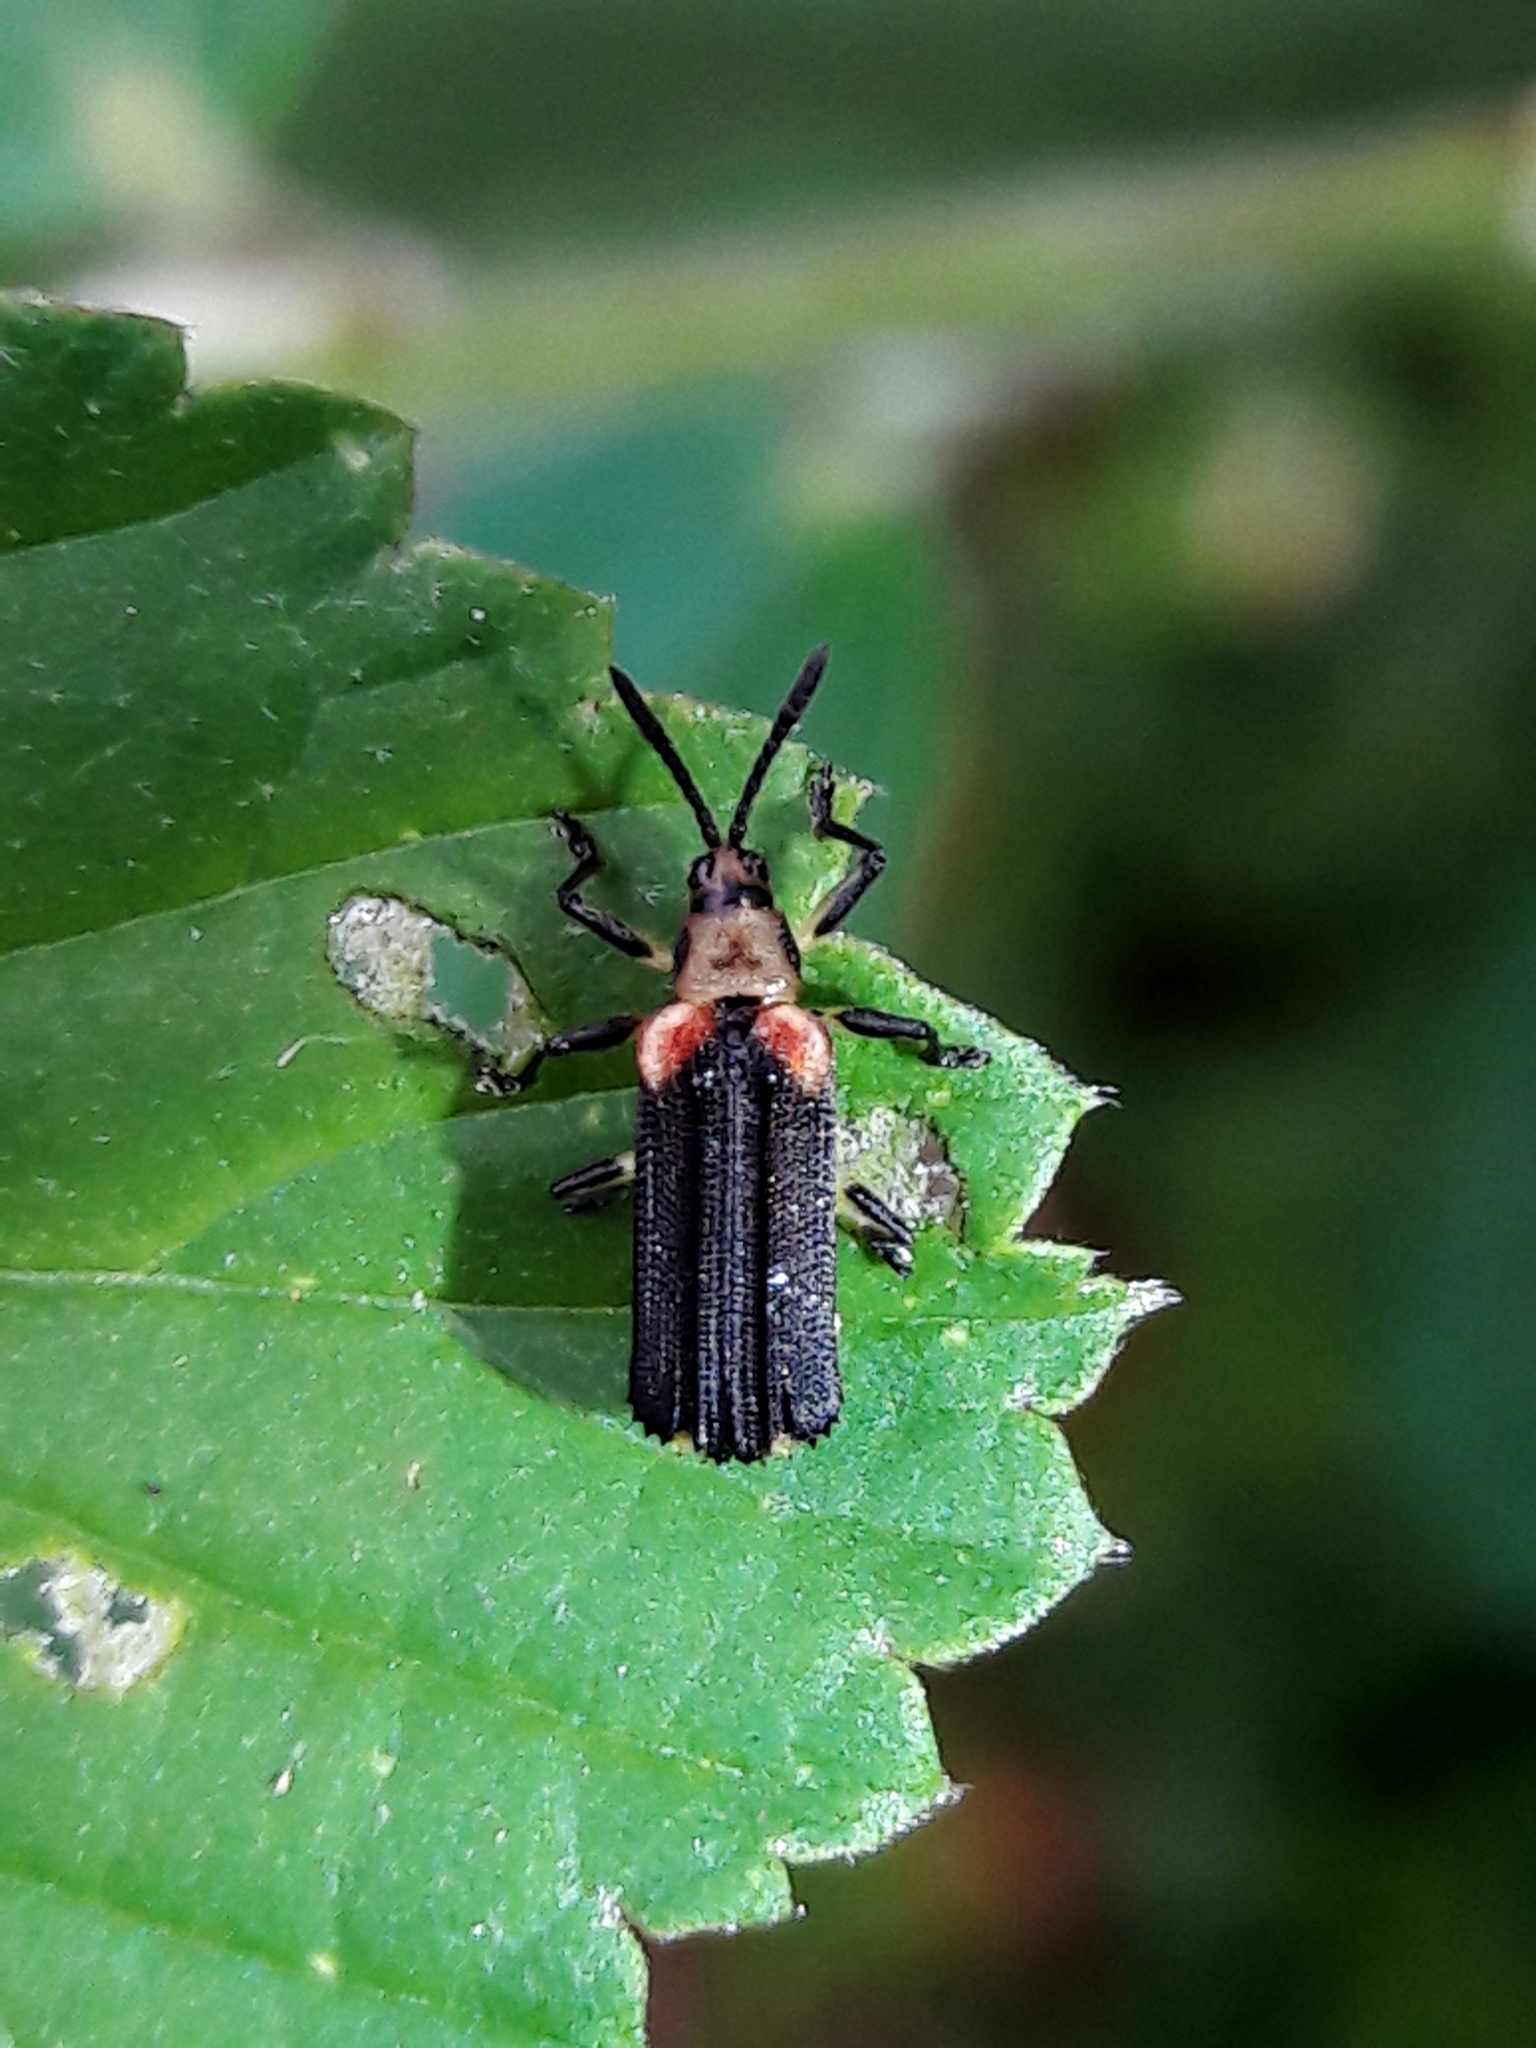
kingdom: Animalia
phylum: Arthropoda
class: Insecta
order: Coleoptera
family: Chrysomelidae
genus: Heterispa
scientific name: Heterispa vinula
